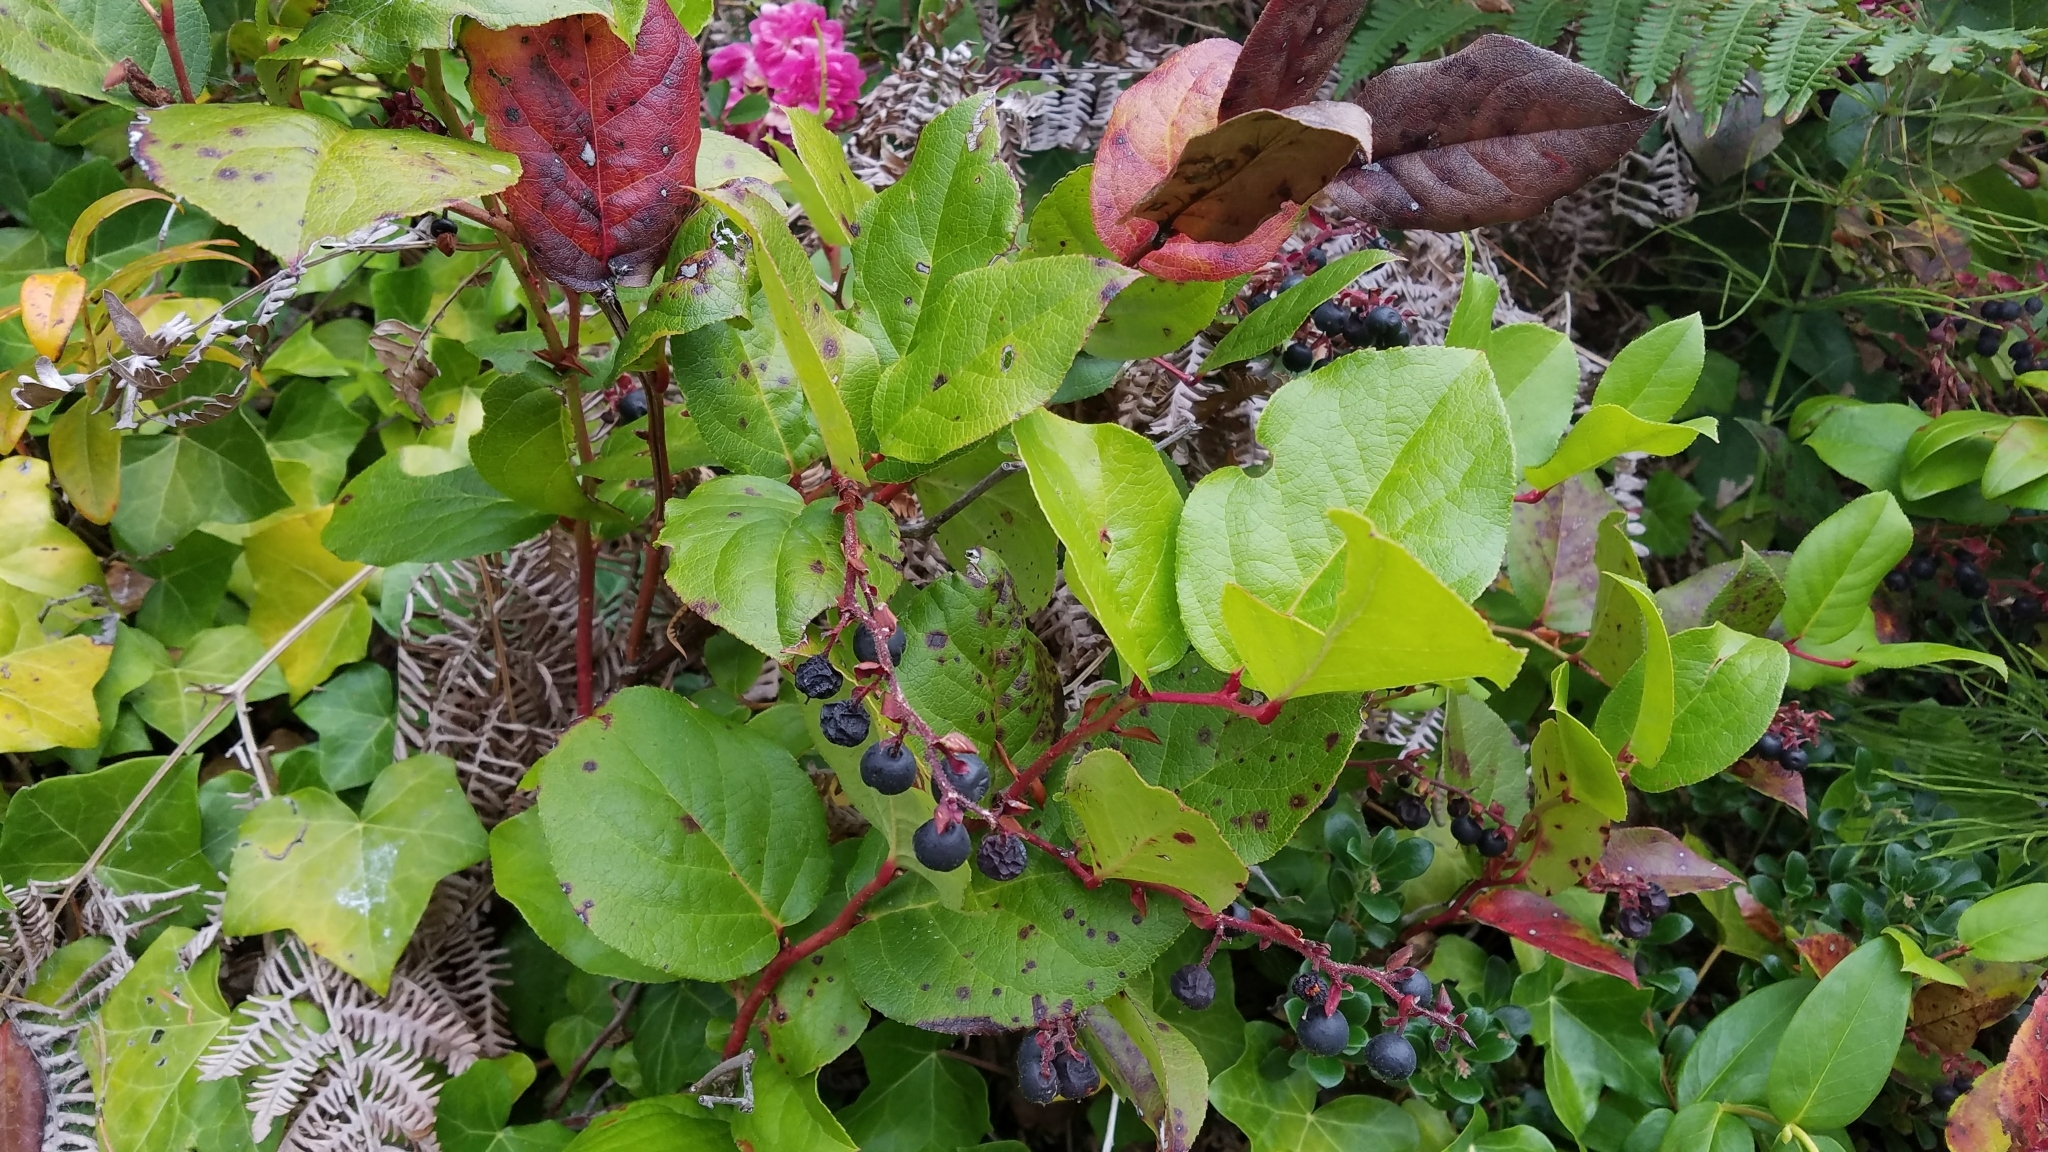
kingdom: Plantae
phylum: Tracheophyta
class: Magnoliopsida
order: Ericales
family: Ericaceae
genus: Gaultheria
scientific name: Gaultheria shallon
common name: Shallon
